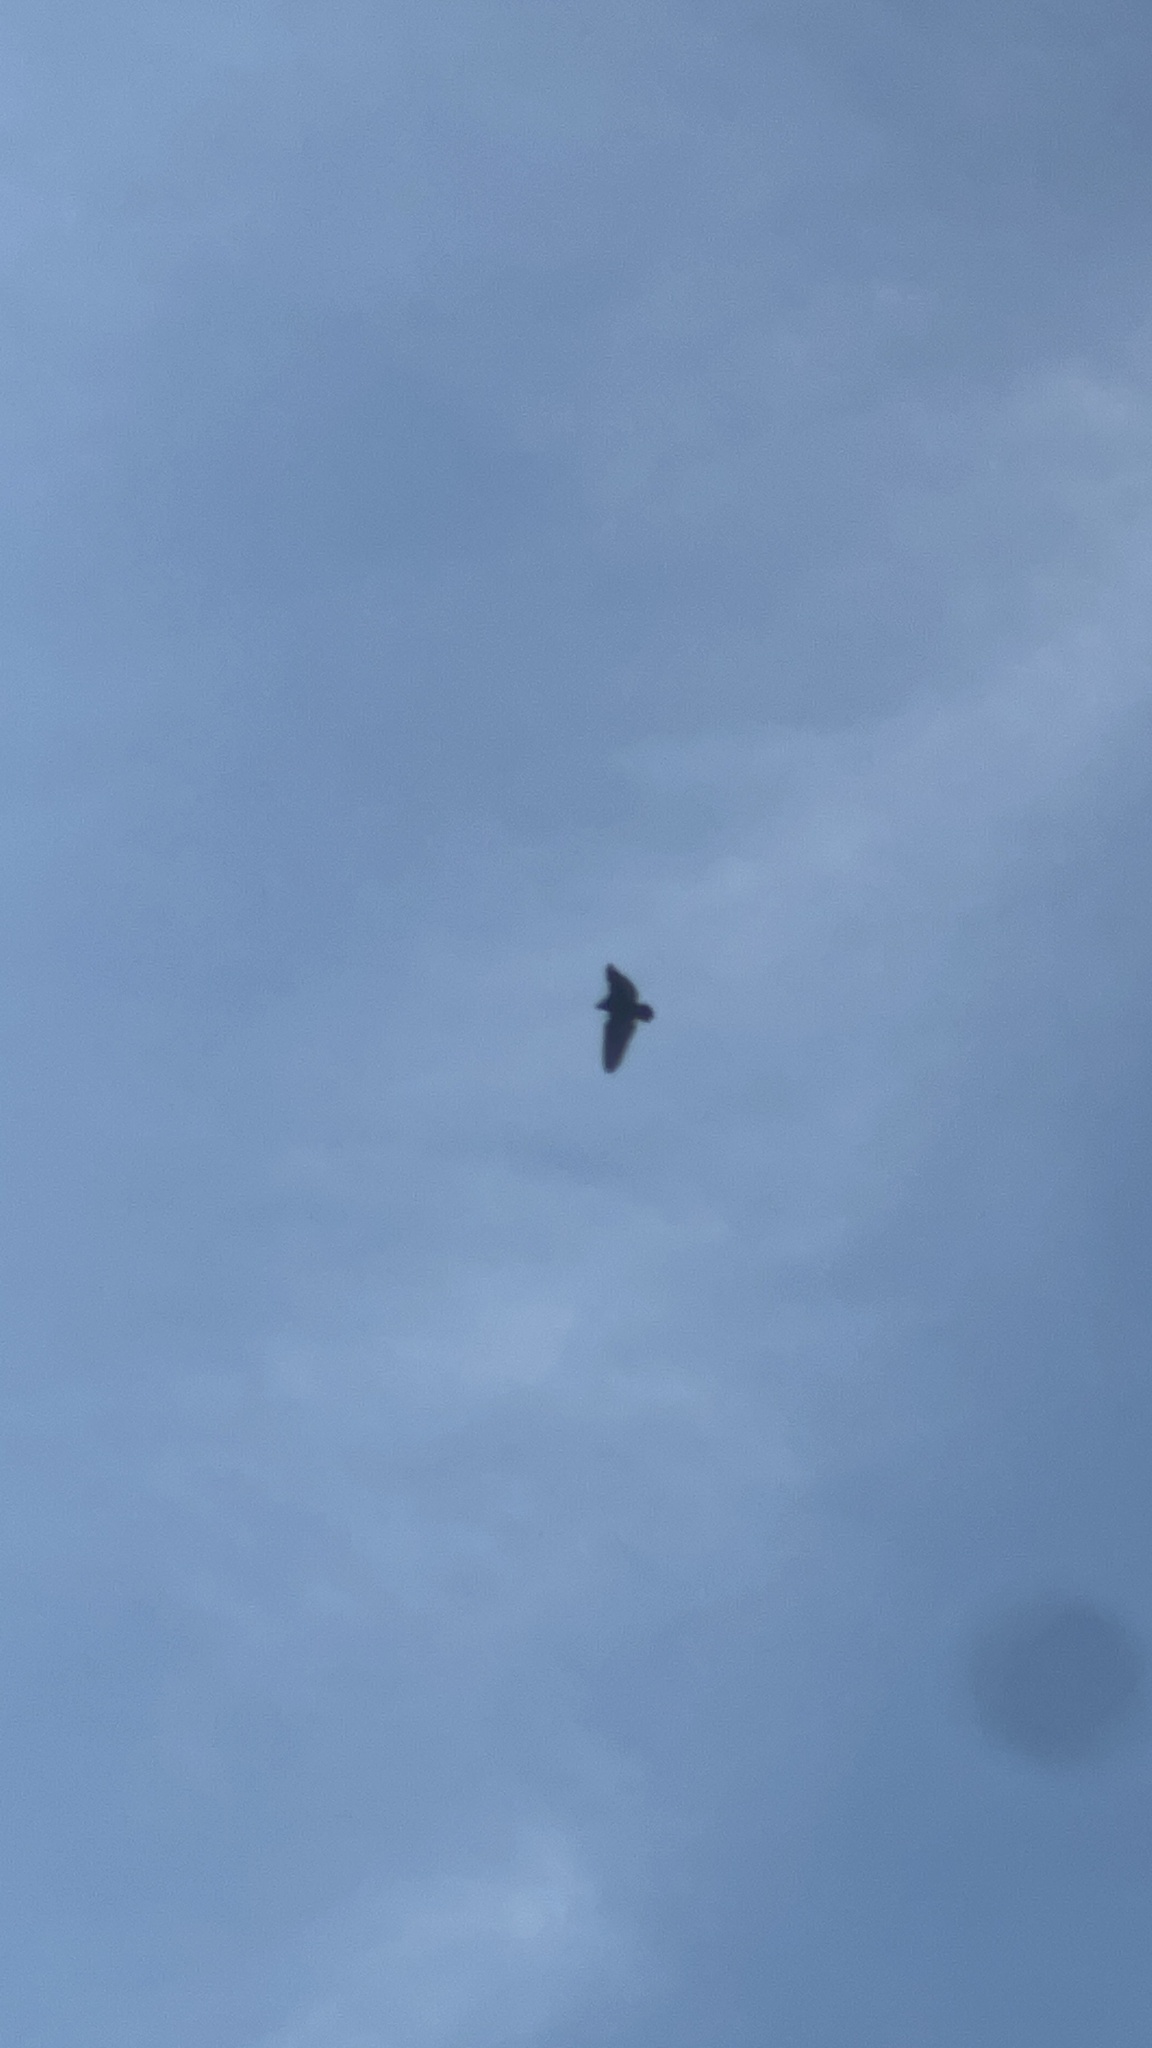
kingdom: Animalia
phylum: Chordata
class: Aves
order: Accipitriformes
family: Cathartidae
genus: Cathartes
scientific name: Cathartes aura
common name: Turkey vulture
